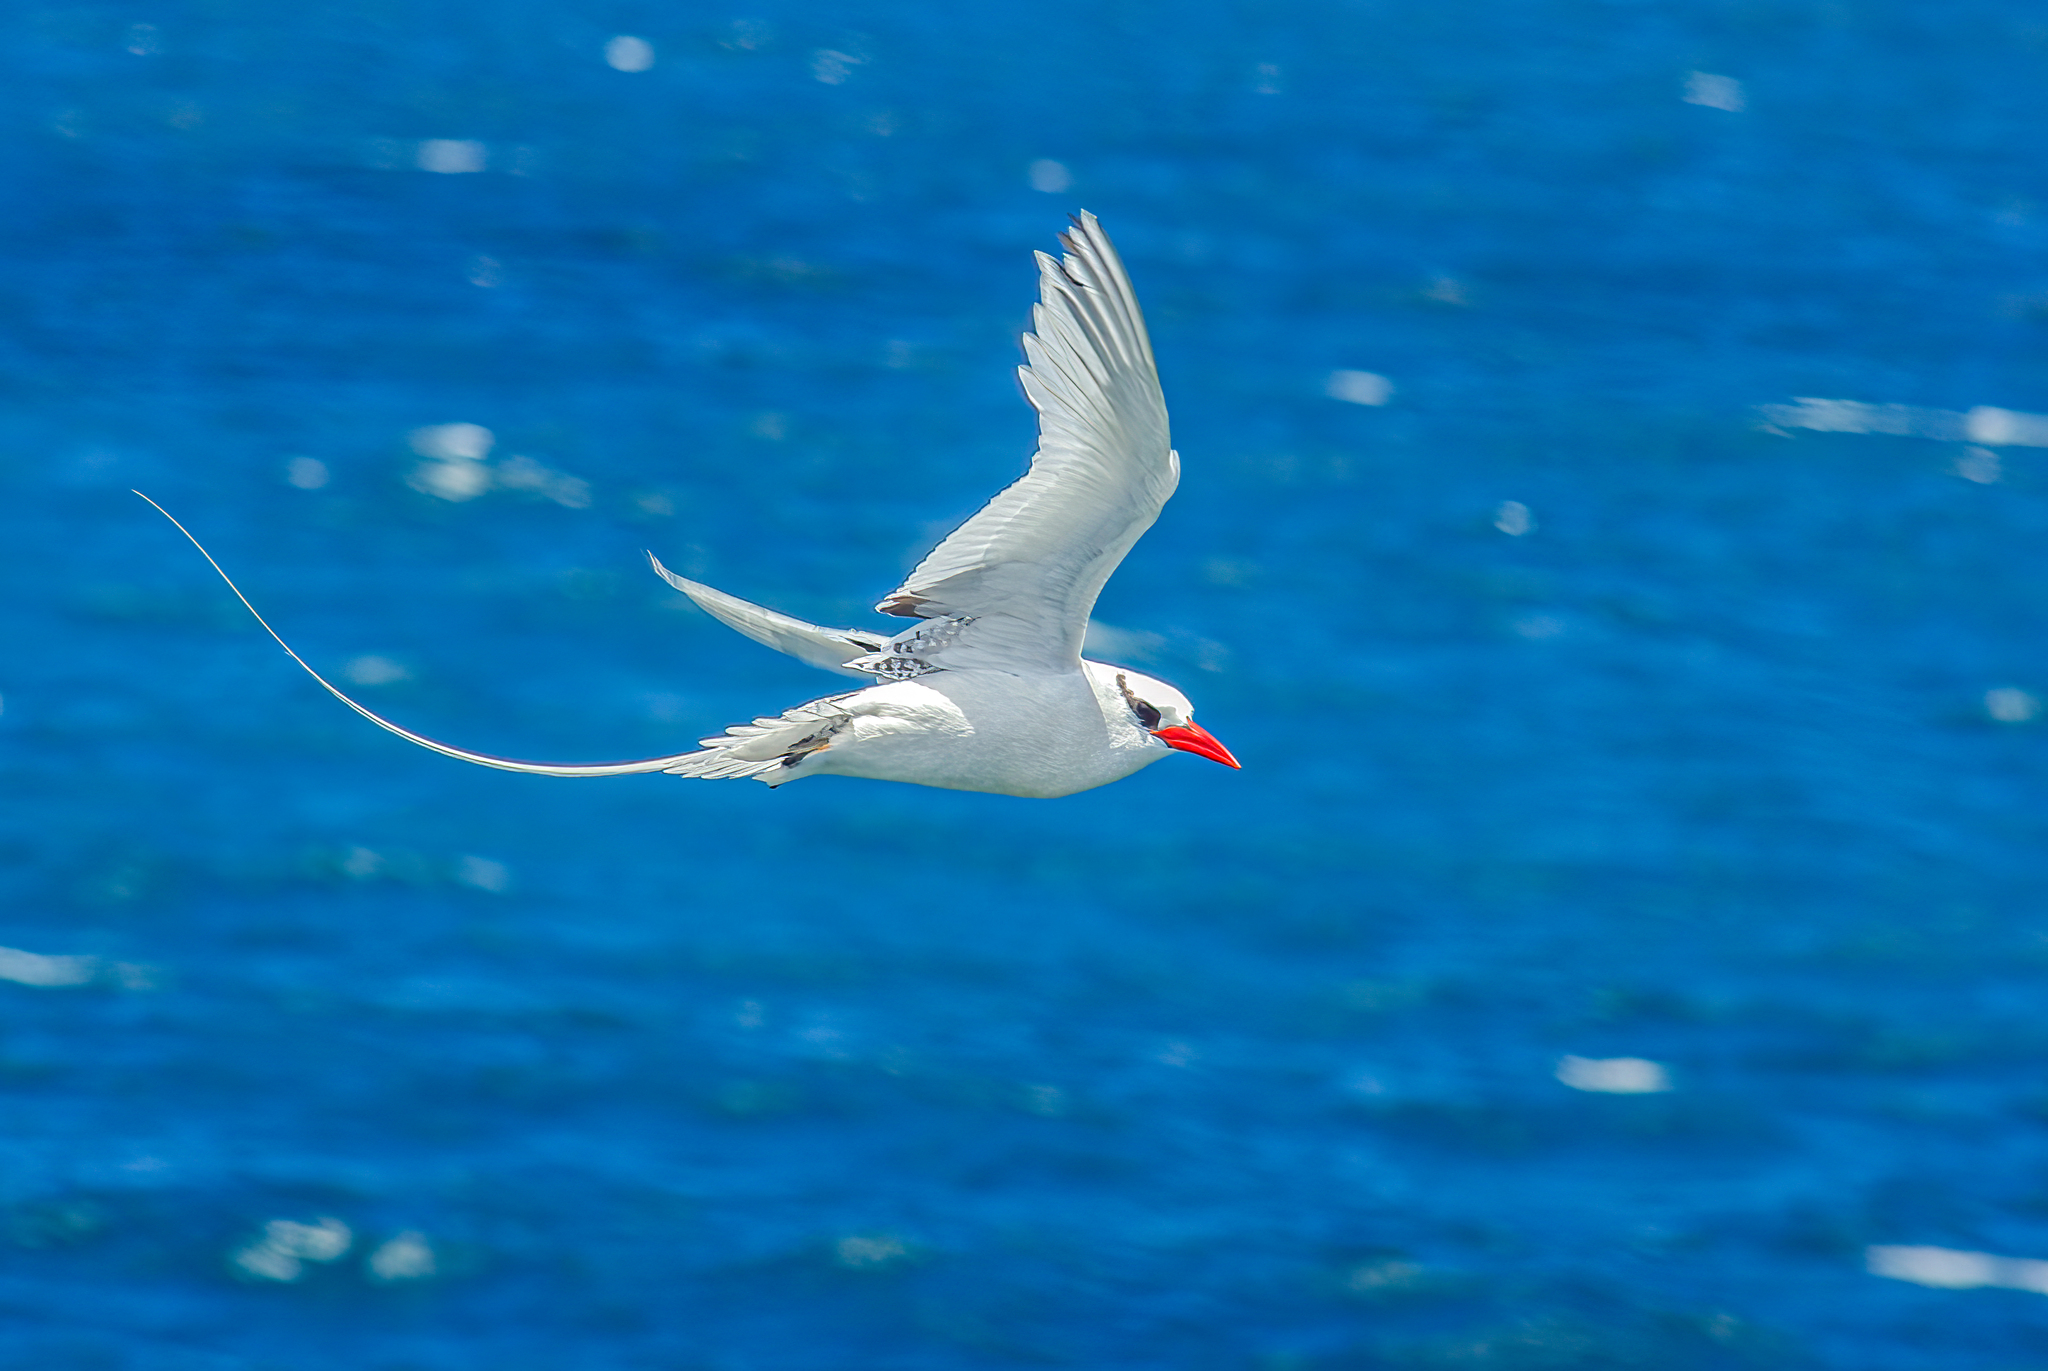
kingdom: Animalia
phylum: Chordata
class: Aves
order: Phaethontiformes
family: Phaethontidae
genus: Phaethon
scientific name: Phaethon aethereus
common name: Red-billed tropicbird
